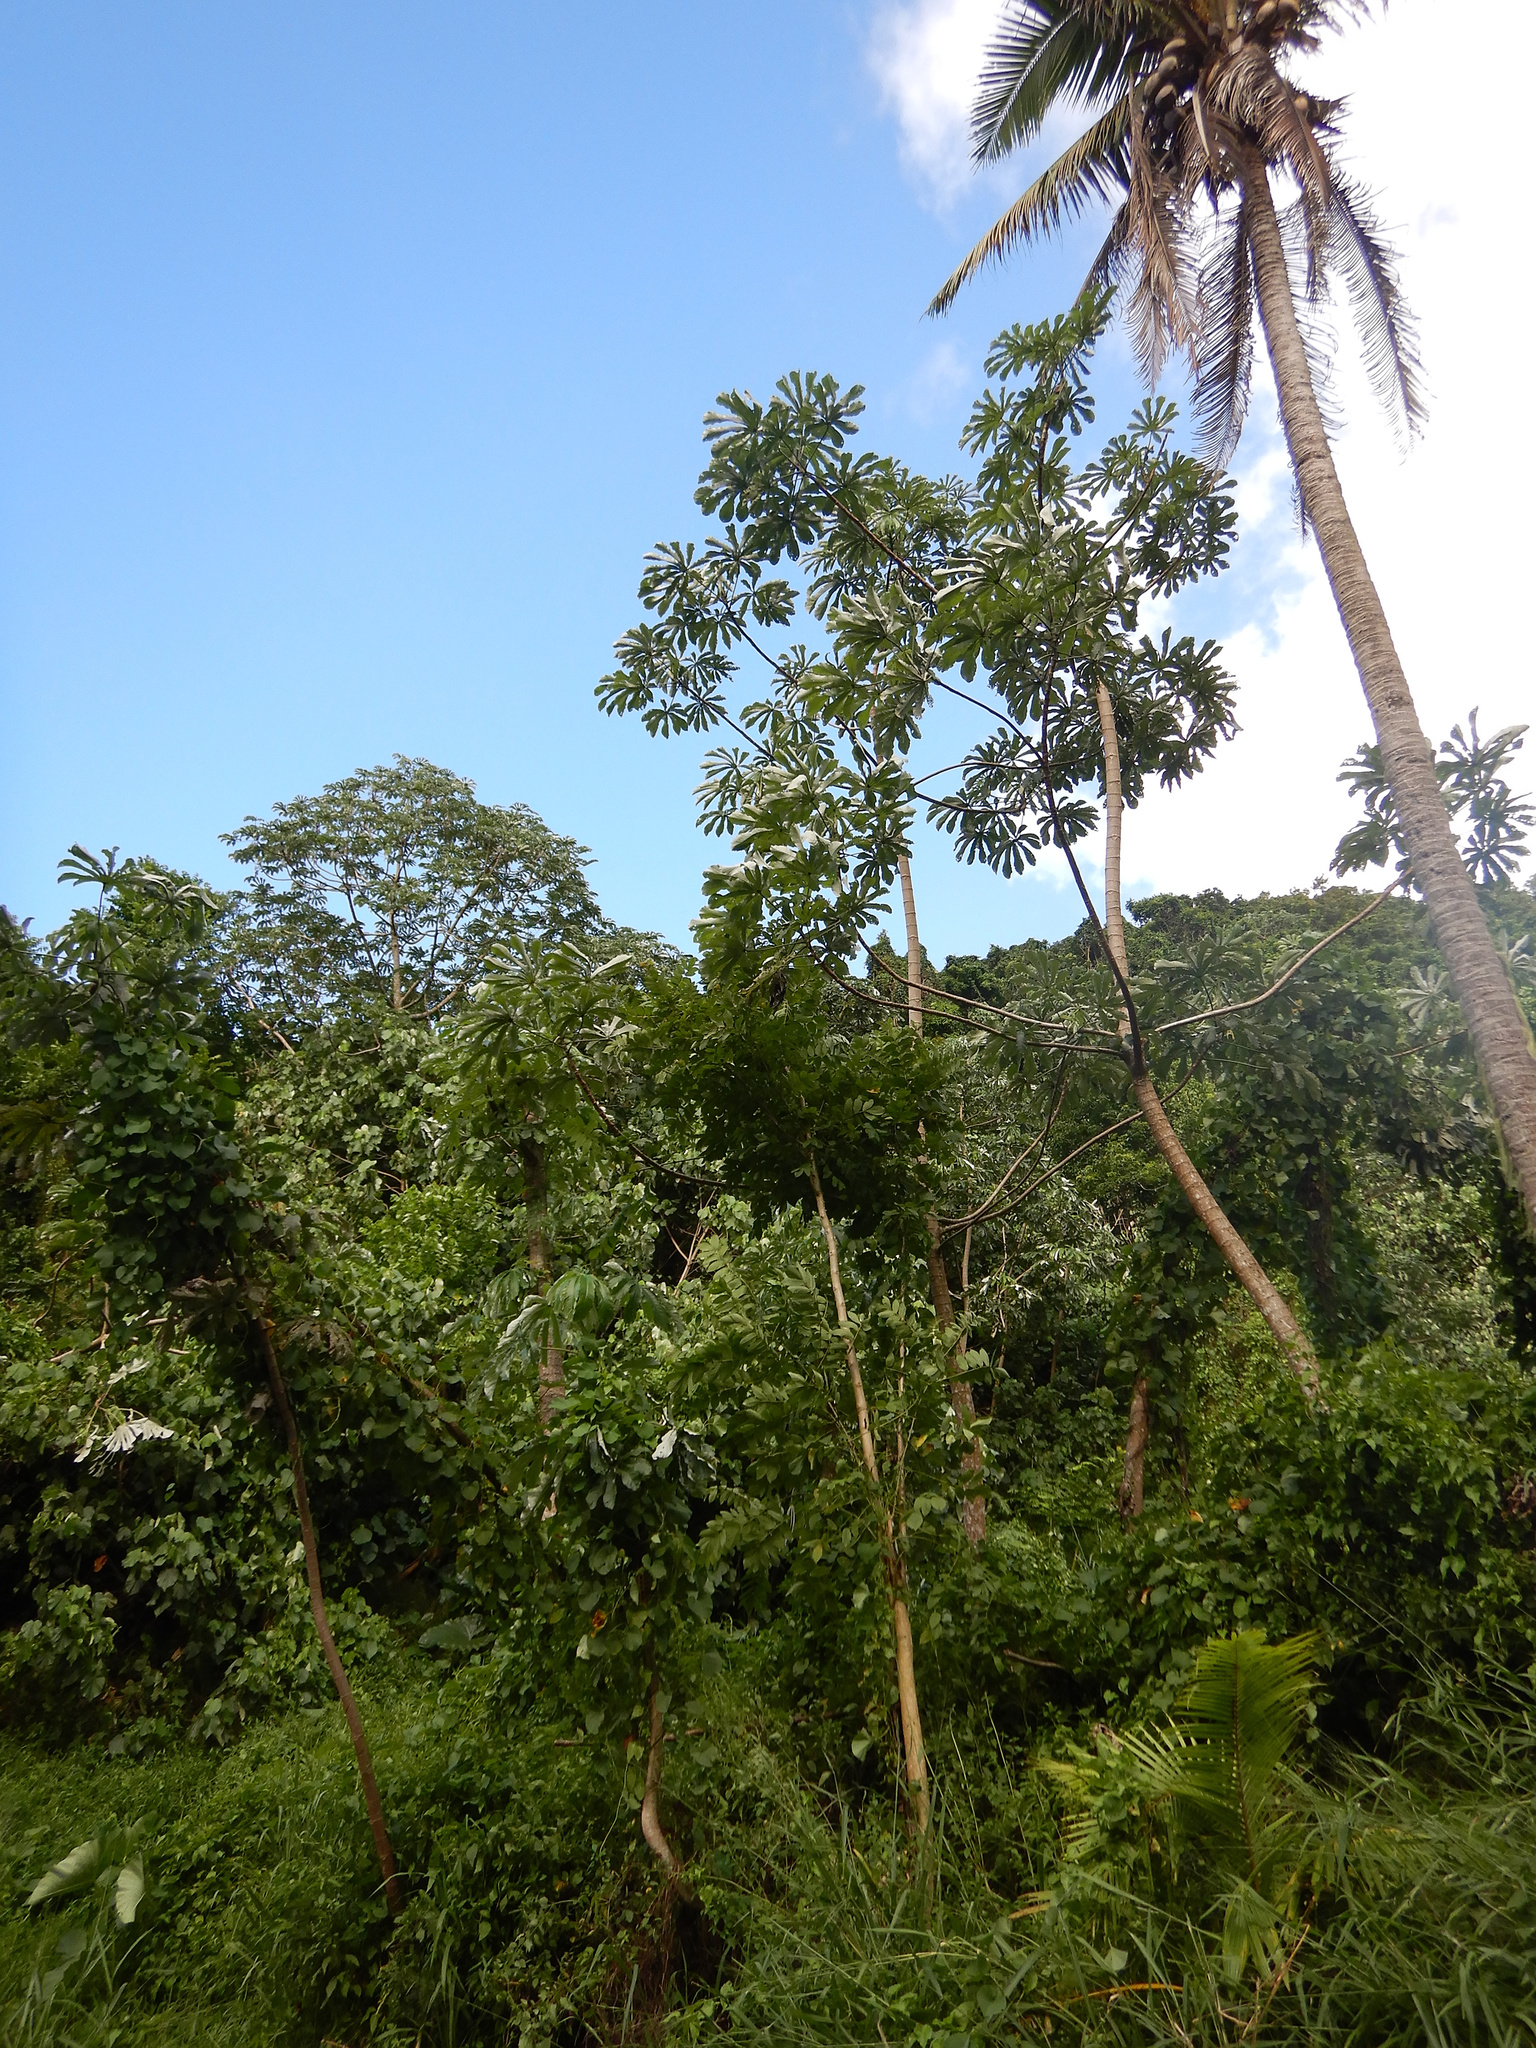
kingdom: Plantae
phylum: Tracheophyta
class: Magnoliopsida
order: Rosales
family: Urticaceae
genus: Cecropia
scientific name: Cecropia pachystachya
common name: Ambay pumpwood
